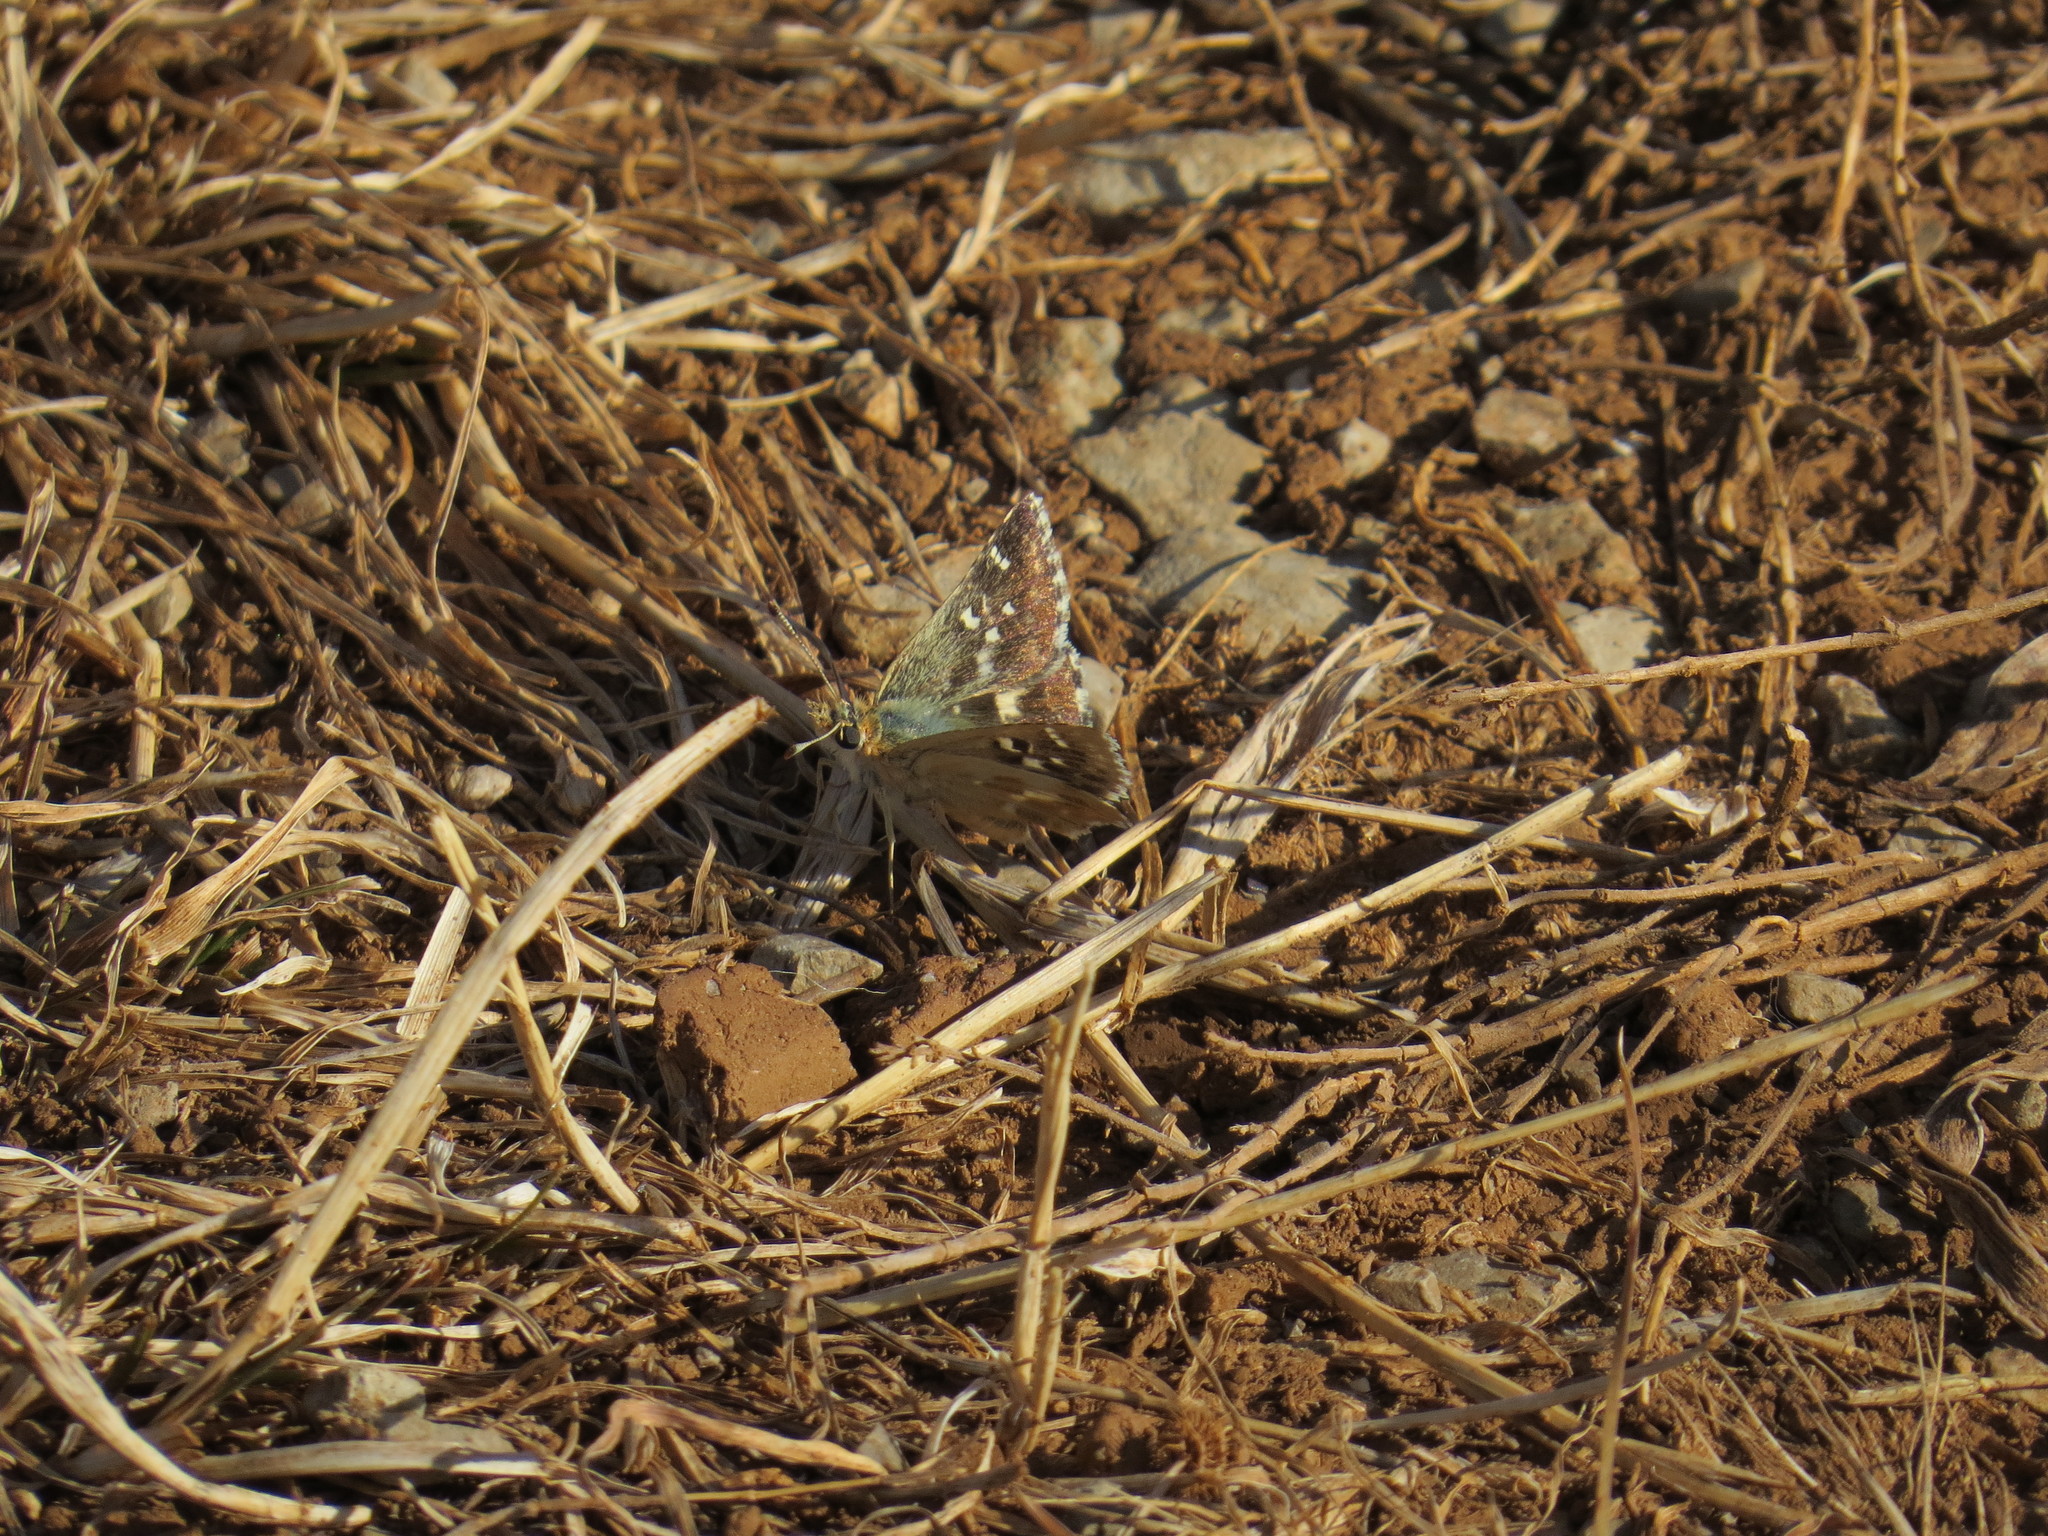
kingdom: Animalia
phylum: Arthropoda
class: Insecta
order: Lepidoptera
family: Hesperiidae
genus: Syrichtus
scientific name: Syrichtus Muschampia proto
